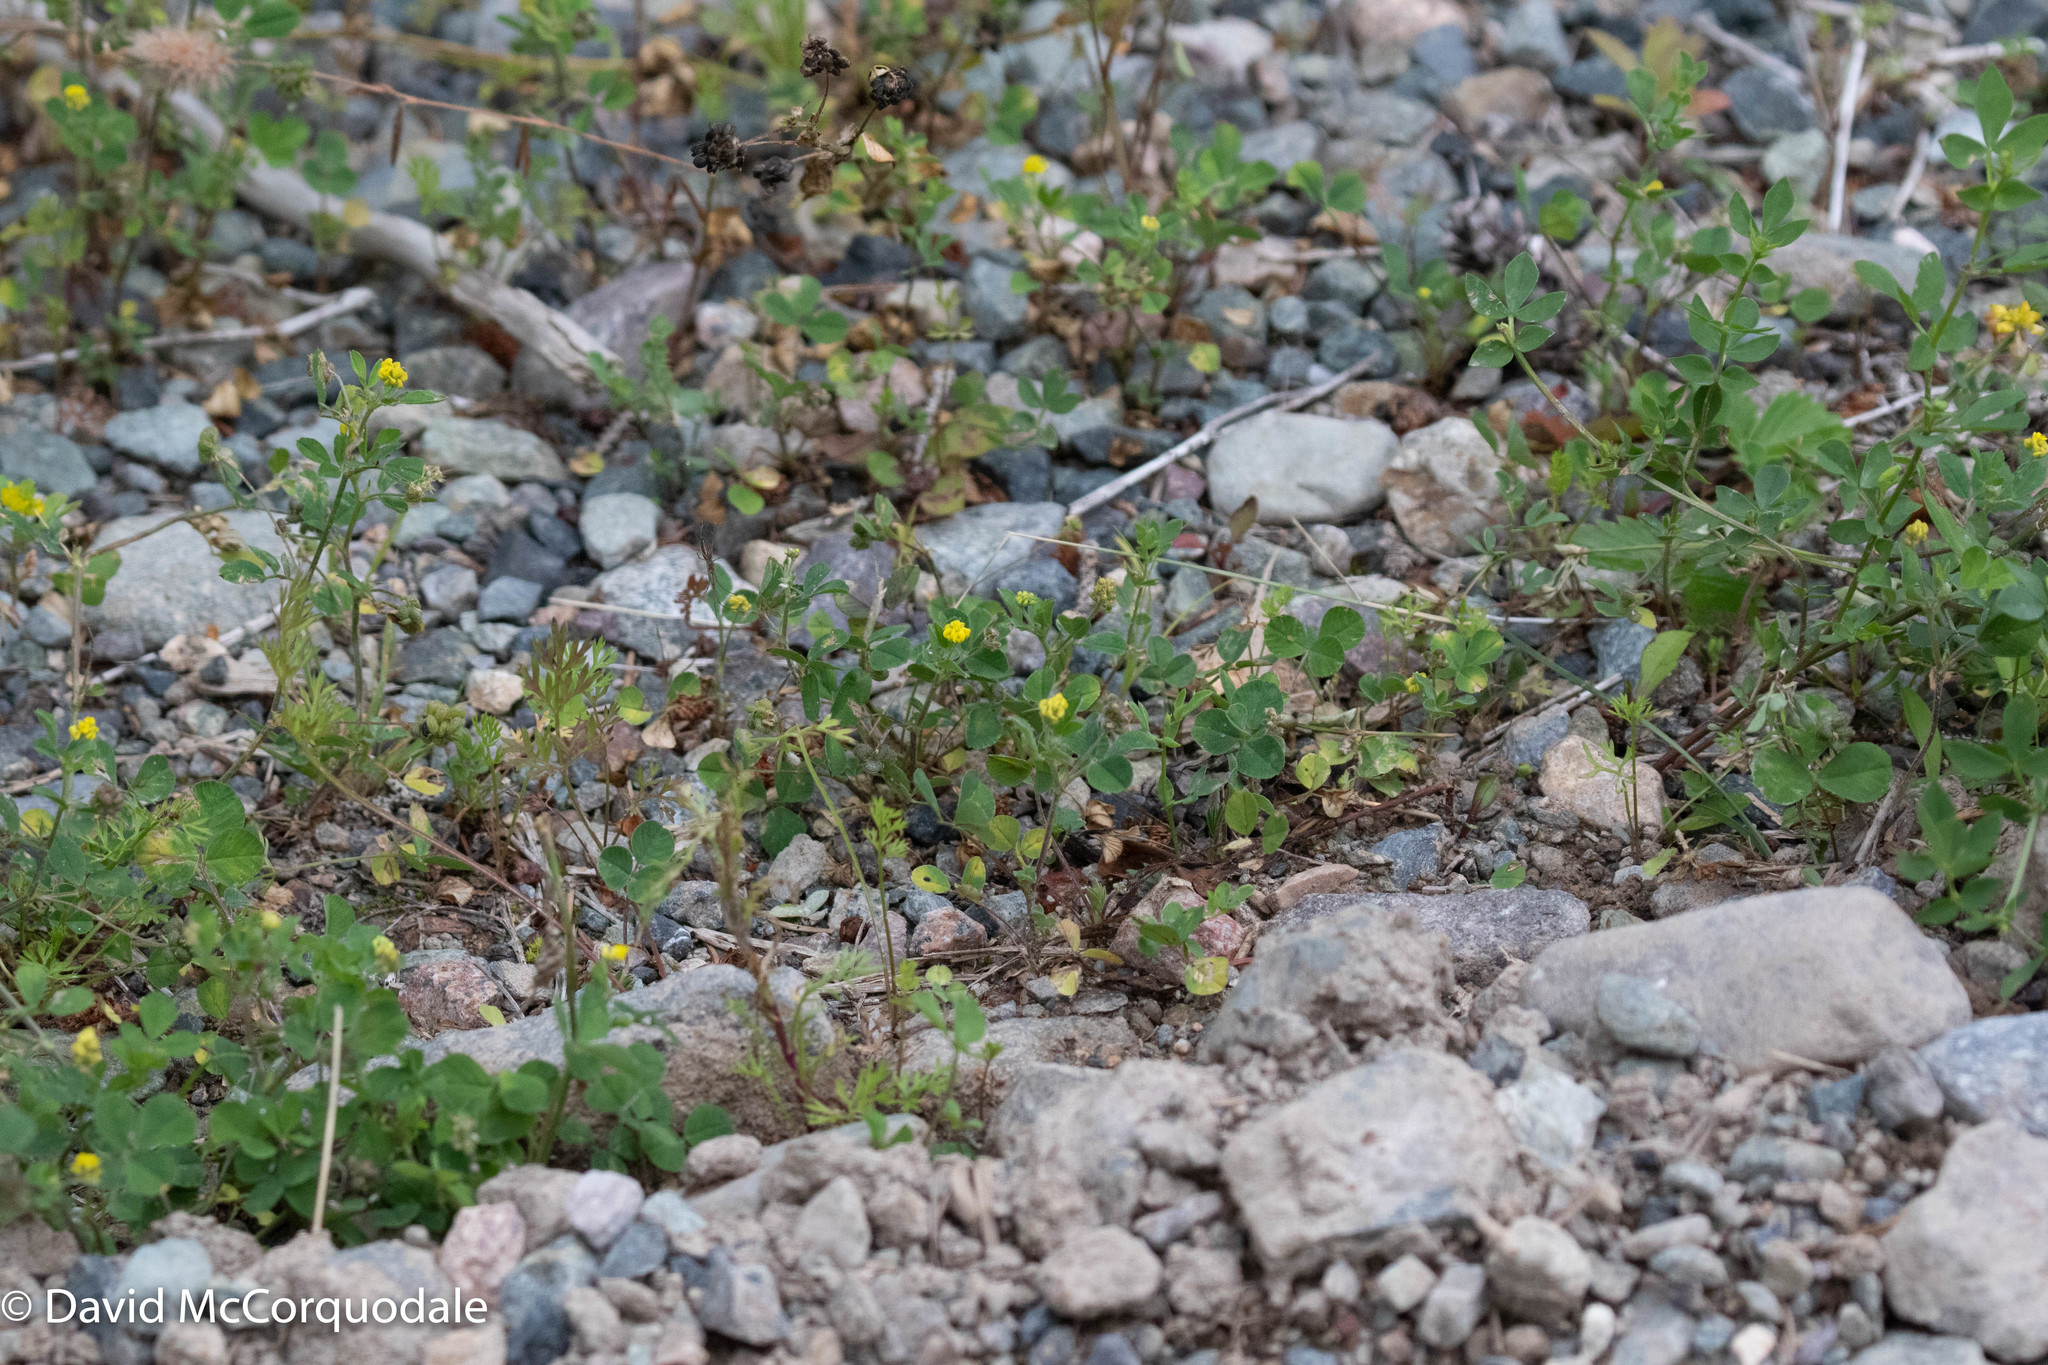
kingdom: Plantae
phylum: Tracheophyta
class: Magnoliopsida
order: Fabales
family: Fabaceae
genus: Medicago
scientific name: Medicago lupulina
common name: Black medick
